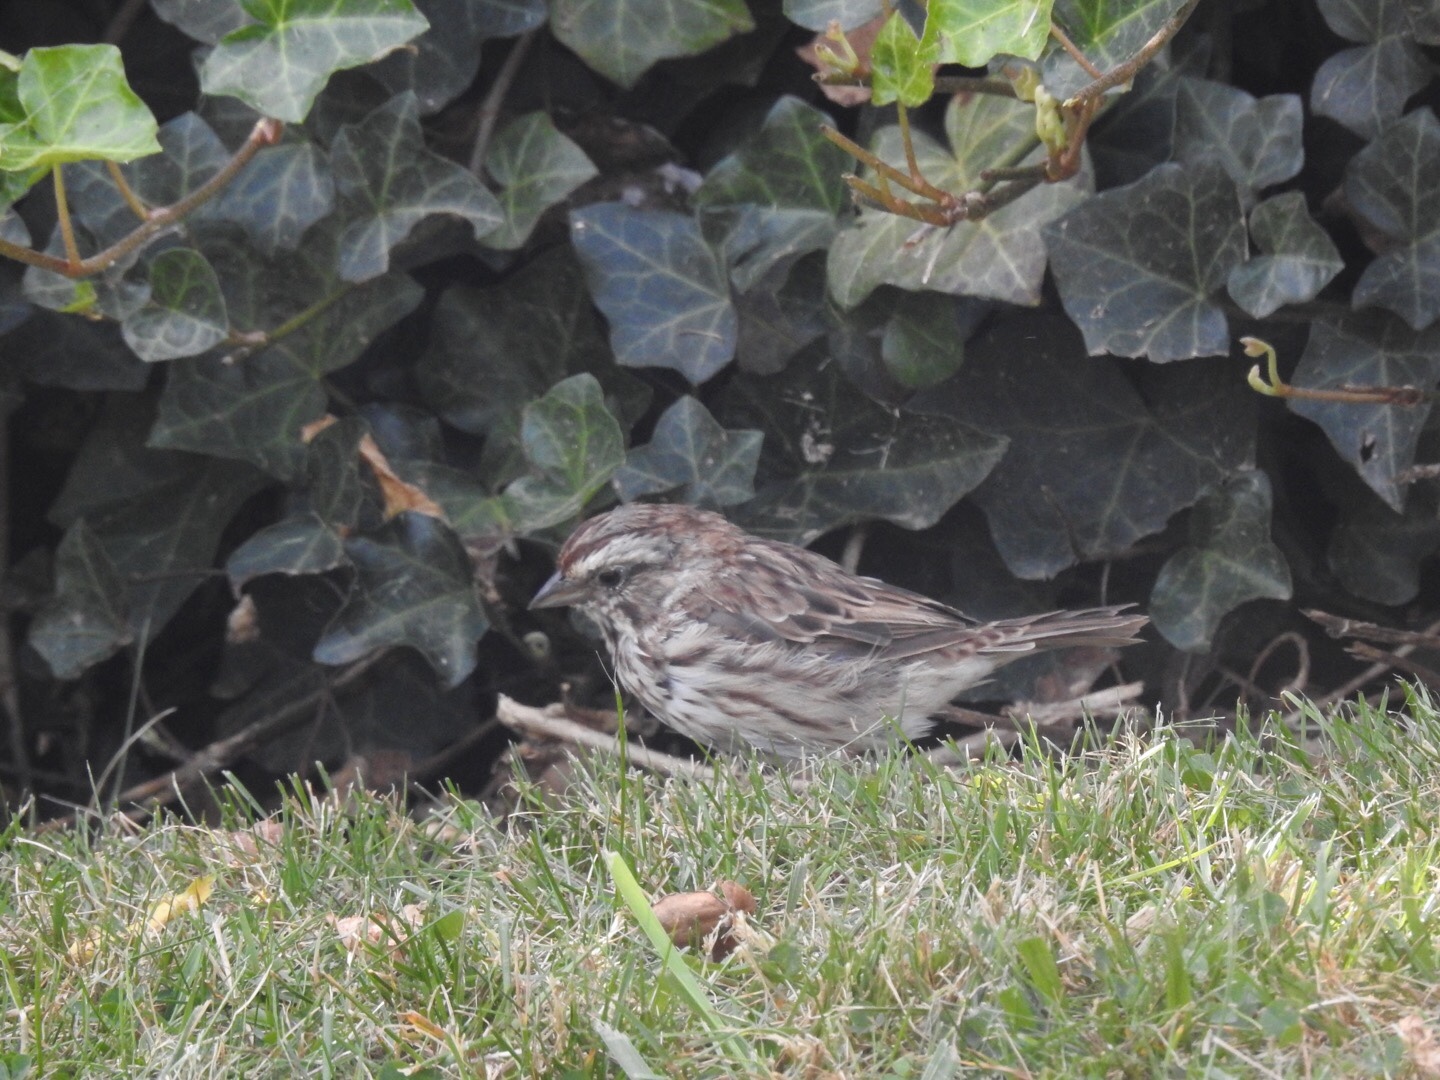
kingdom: Animalia
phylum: Chordata
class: Aves
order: Passeriformes
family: Passerellidae
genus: Melospiza
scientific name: Melospiza melodia
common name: Song sparrow
